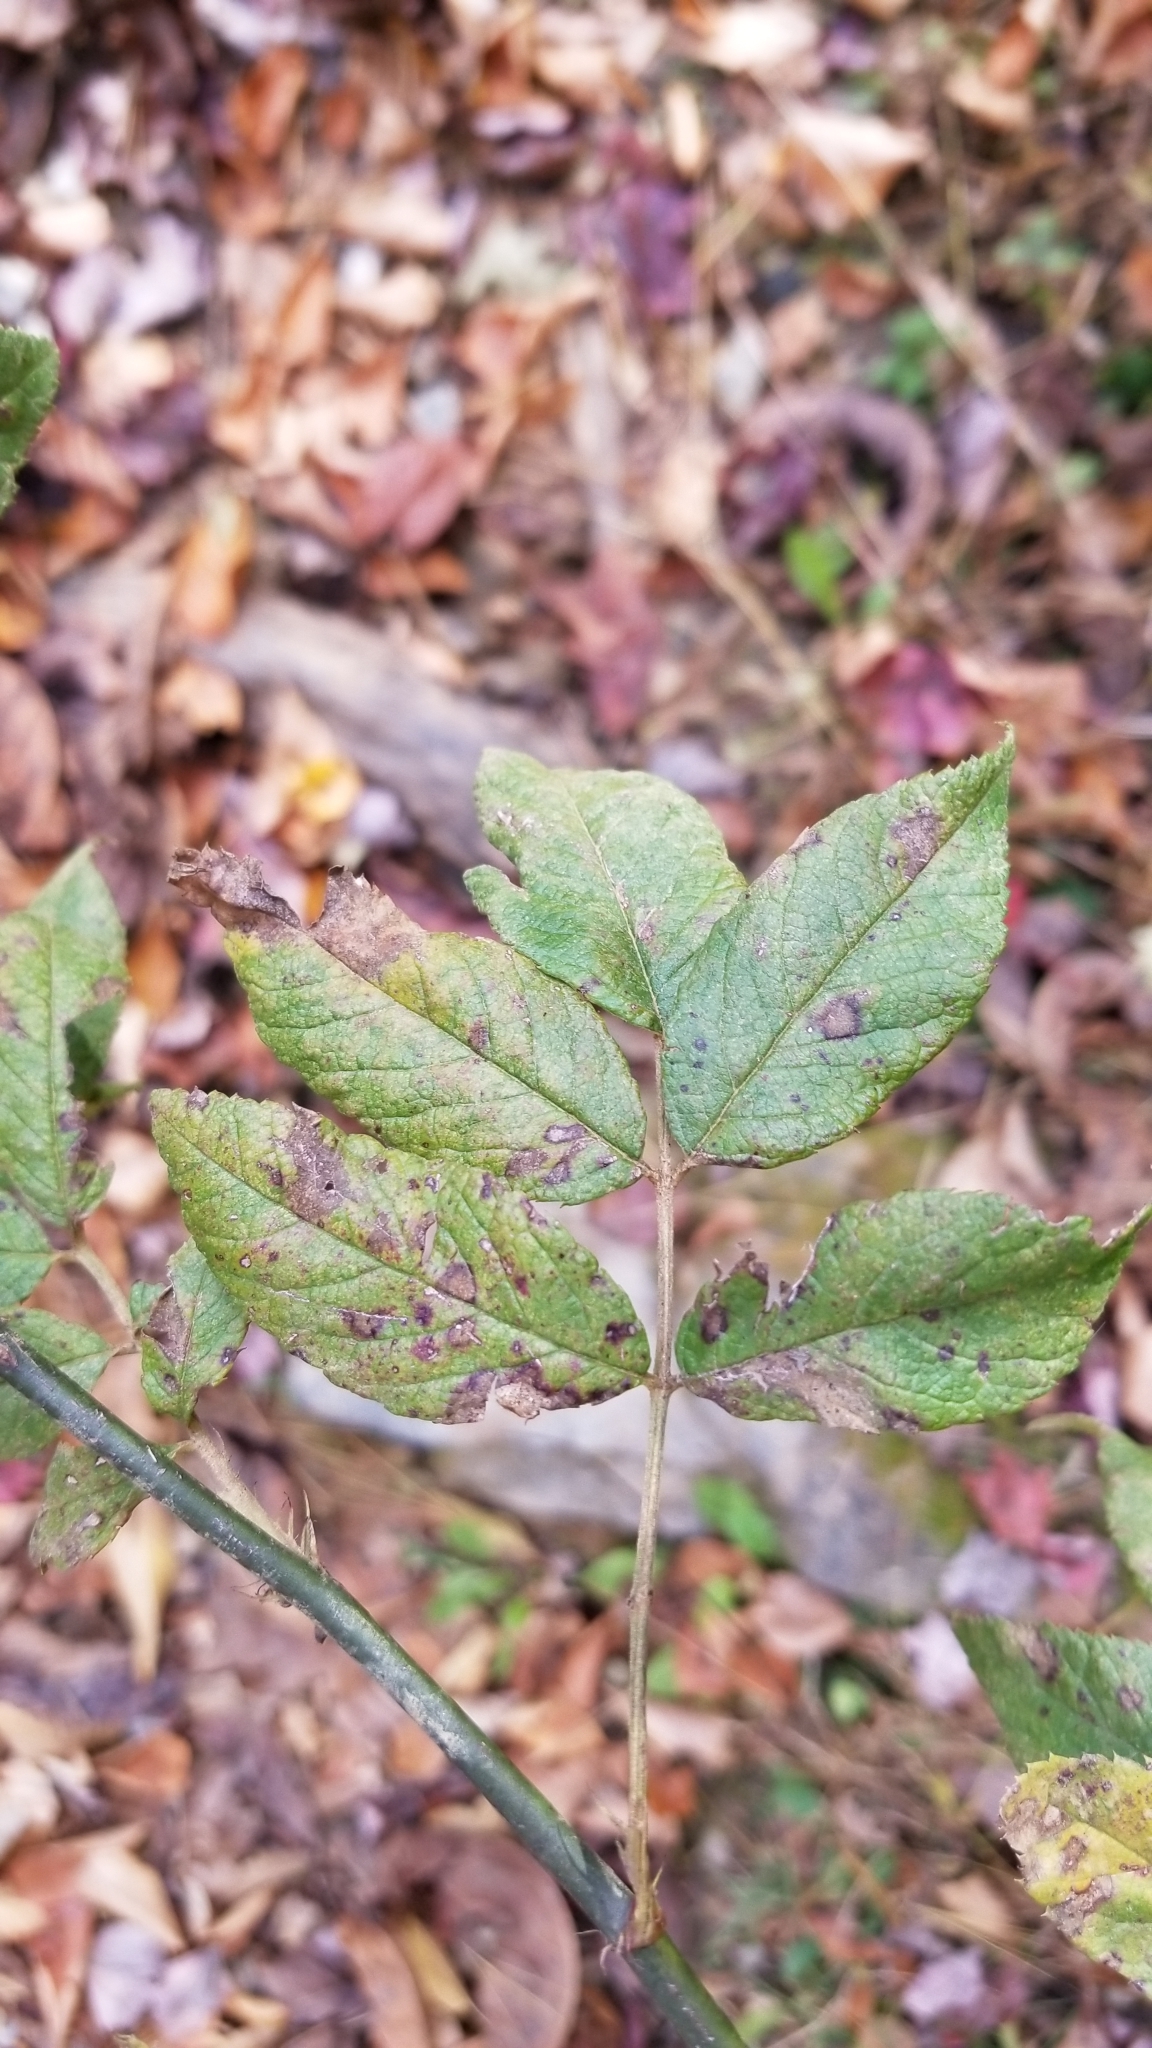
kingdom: Plantae
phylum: Tracheophyta
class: Magnoliopsida
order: Rosales
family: Rosaceae
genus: Rosa
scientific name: Rosa multiflora
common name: Multiflora rose
